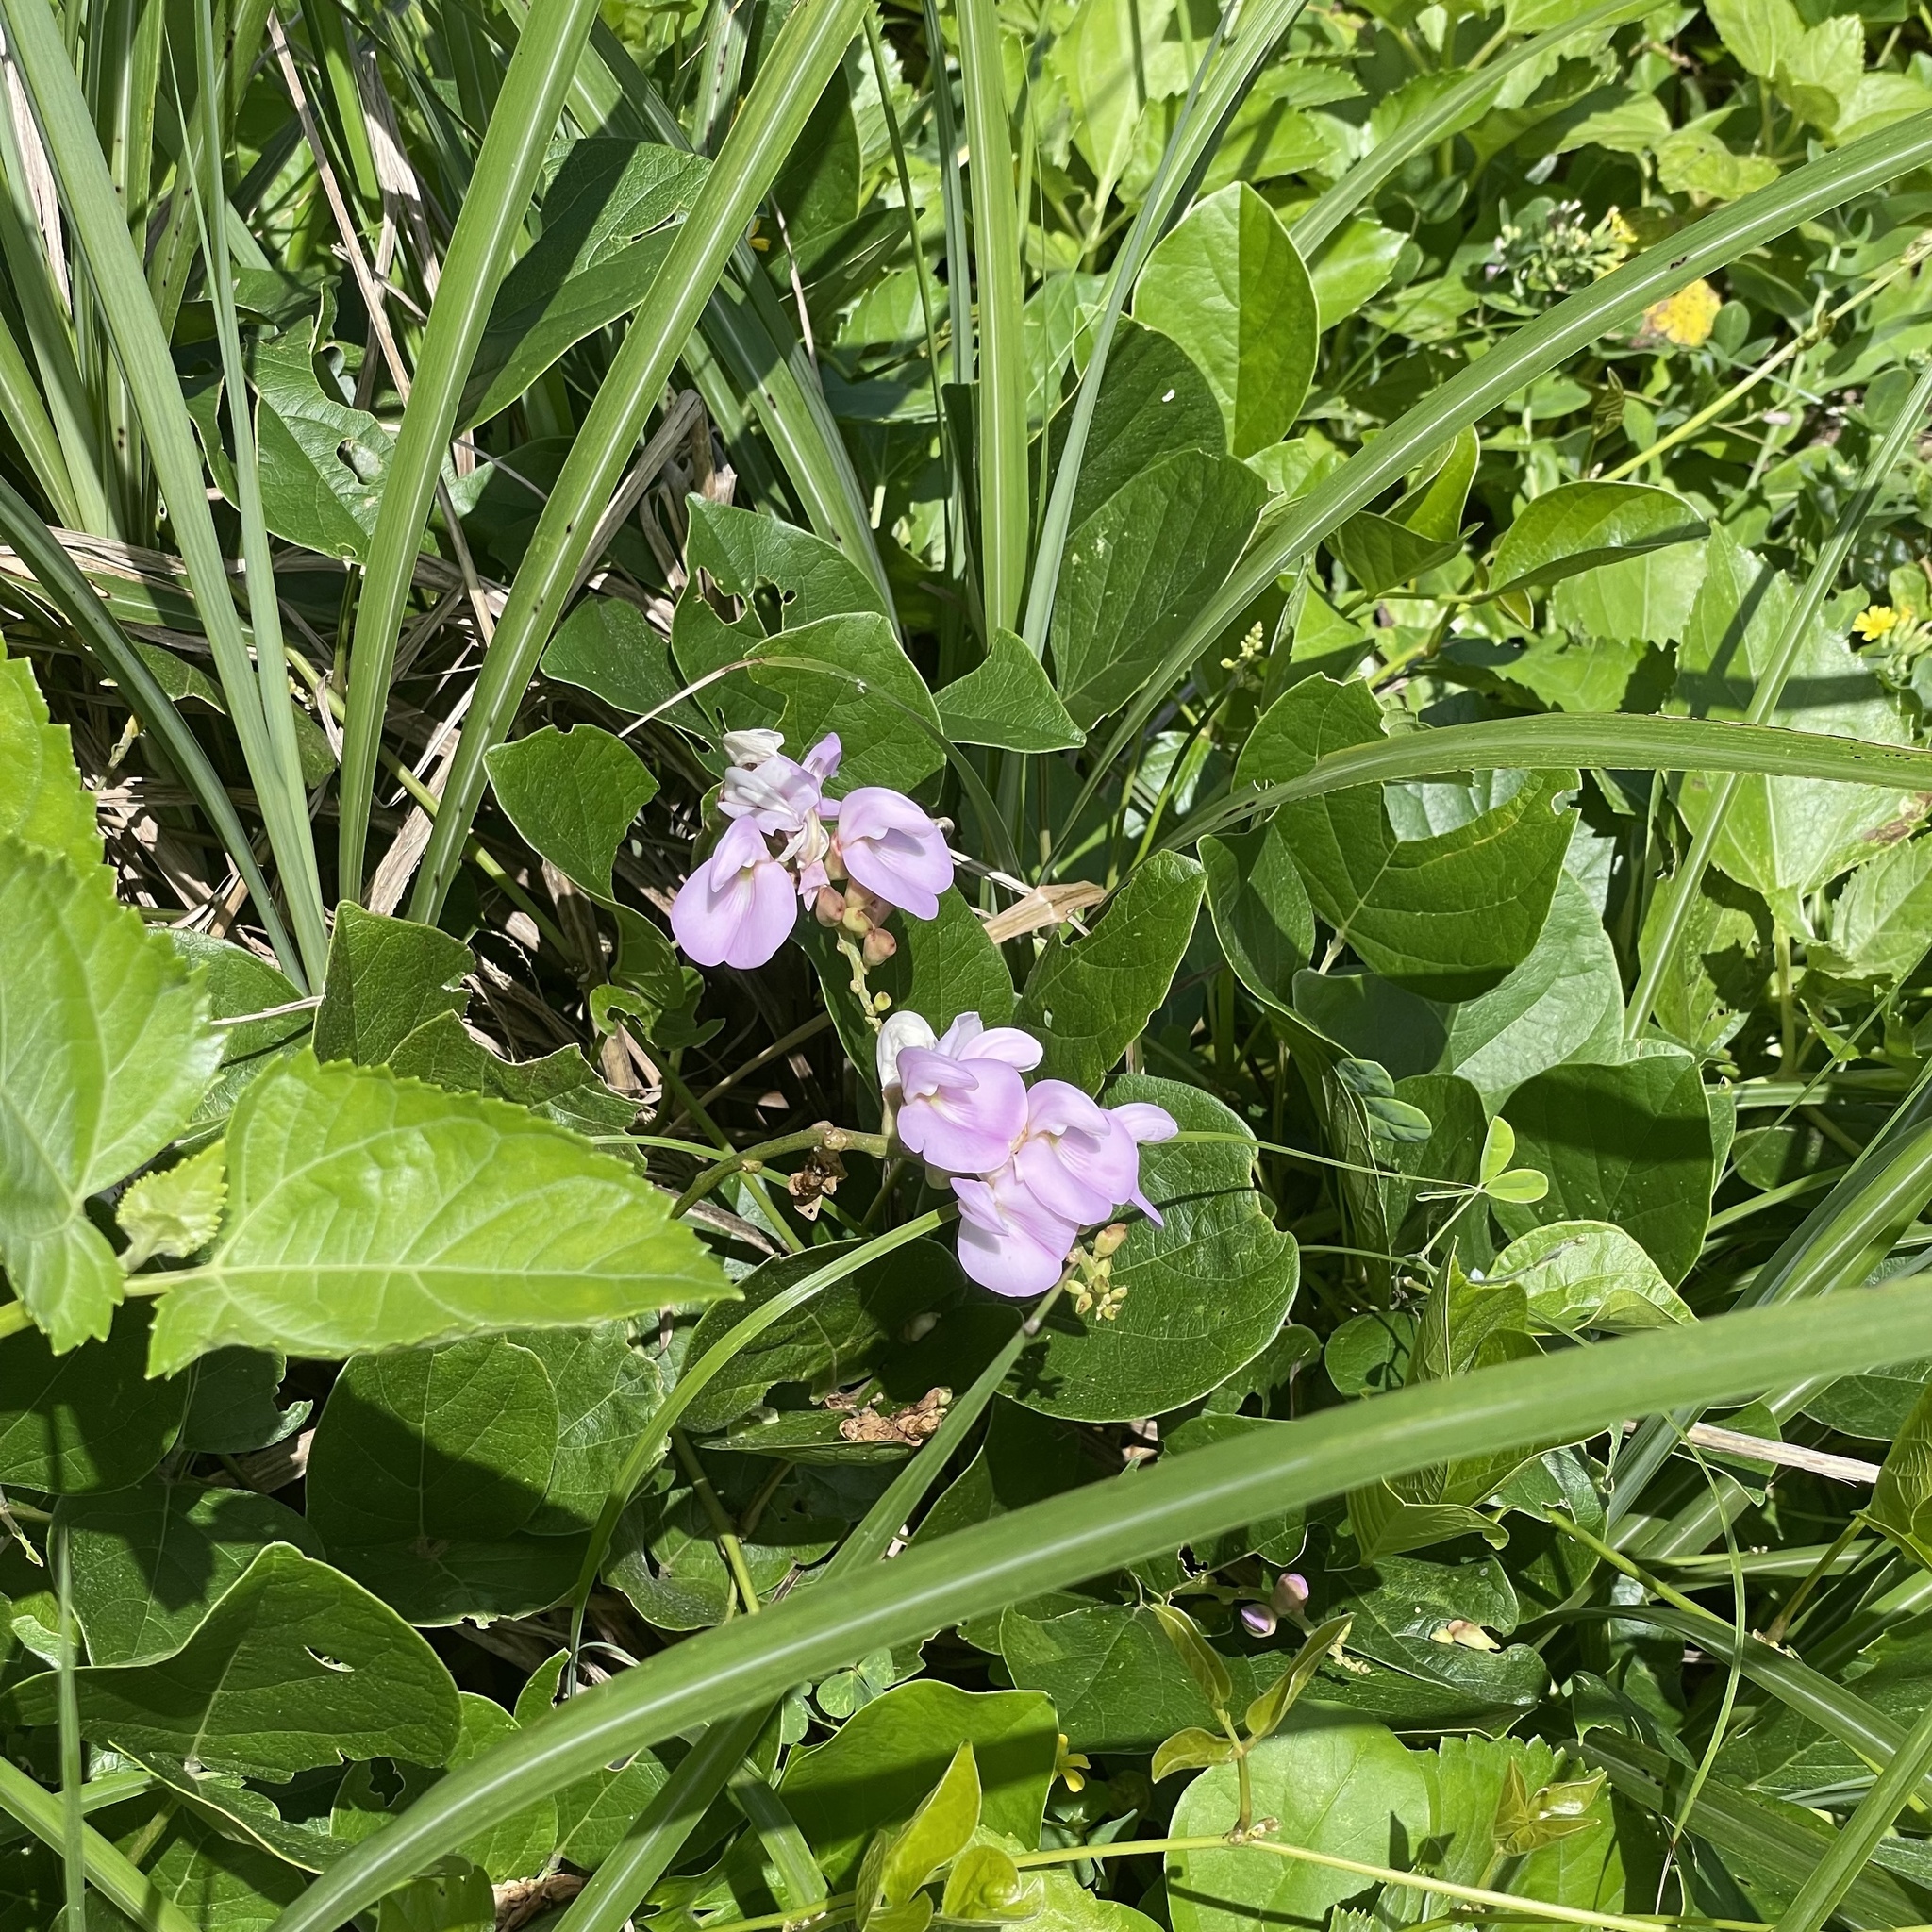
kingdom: Plantae
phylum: Tracheophyta
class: Magnoliopsida
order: Fabales
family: Fabaceae
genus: Canavalia
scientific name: Canavalia lineata
